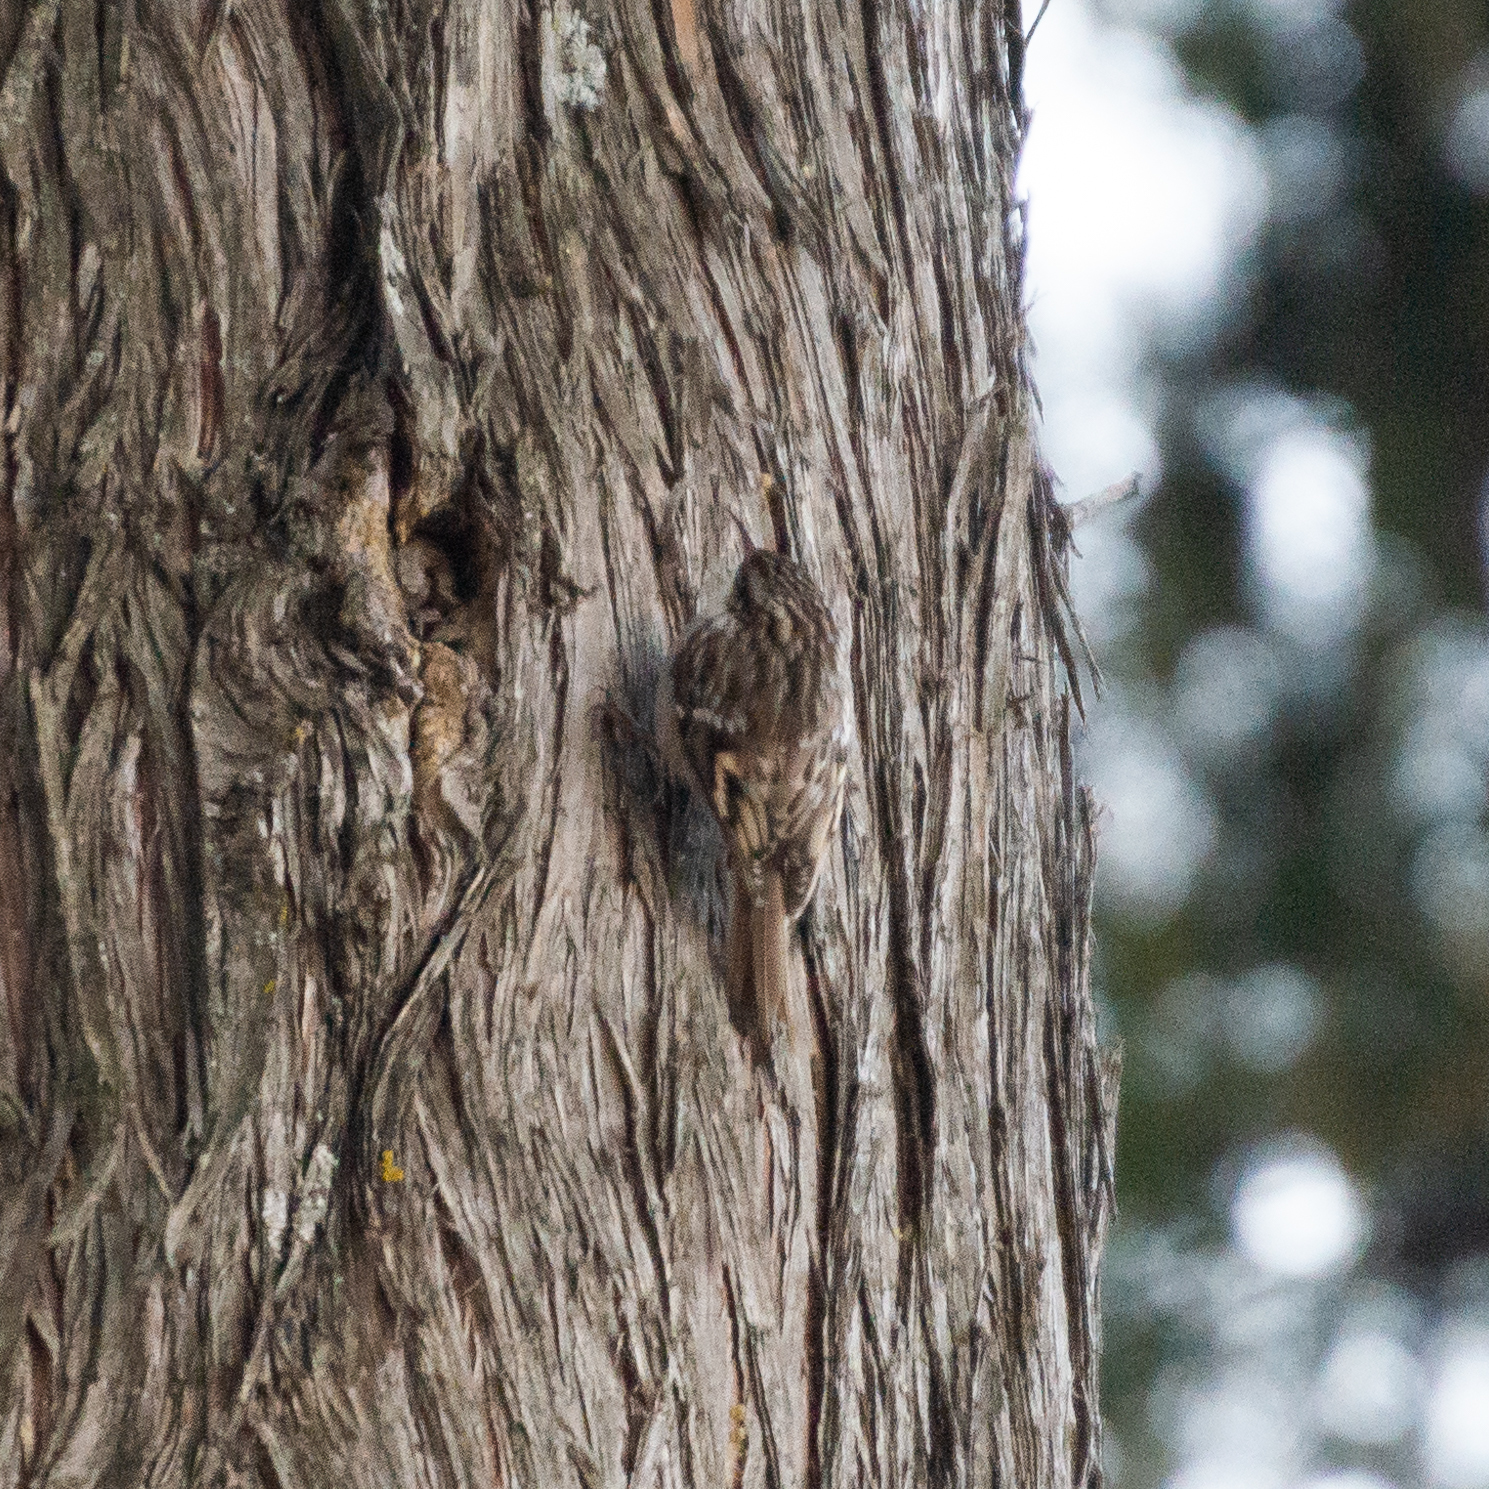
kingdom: Animalia
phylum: Chordata
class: Aves
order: Passeriformes
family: Certhiidae
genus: Certhia
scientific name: Certhia brachydactyla
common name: Short-toed treecreeper
